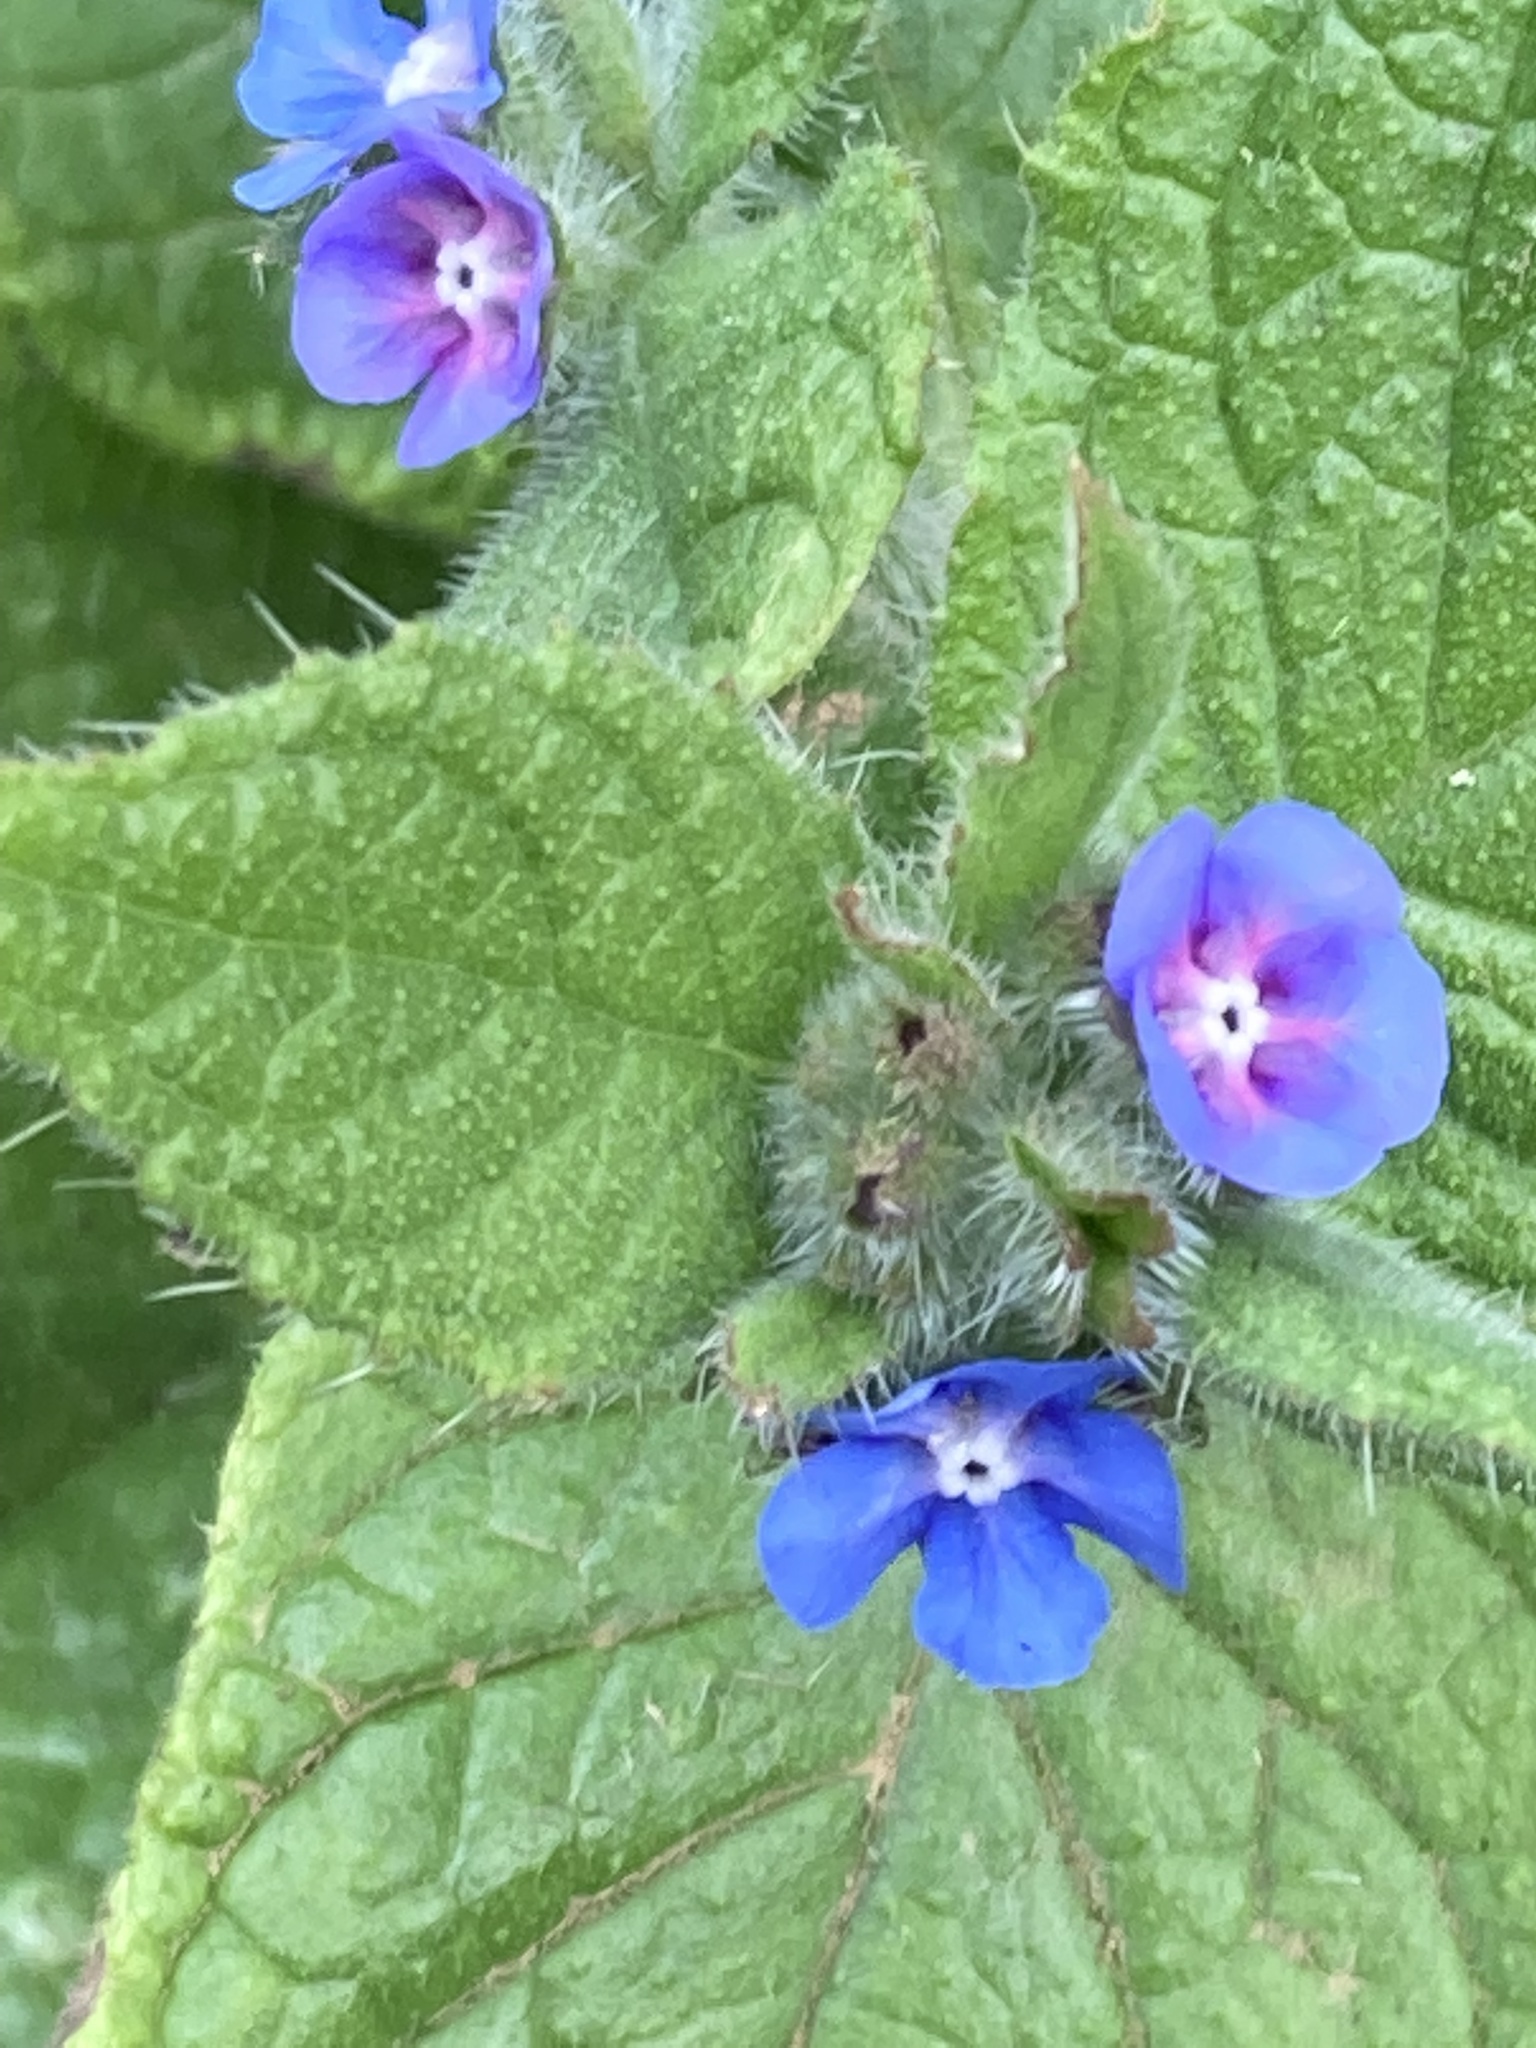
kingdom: Plantae
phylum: Tracheophyta
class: Magnoliopsida
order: Boraginales
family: Boraginaceae
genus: Pentaglottis
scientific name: Pentaglottis sempervirens
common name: Green alkanet
